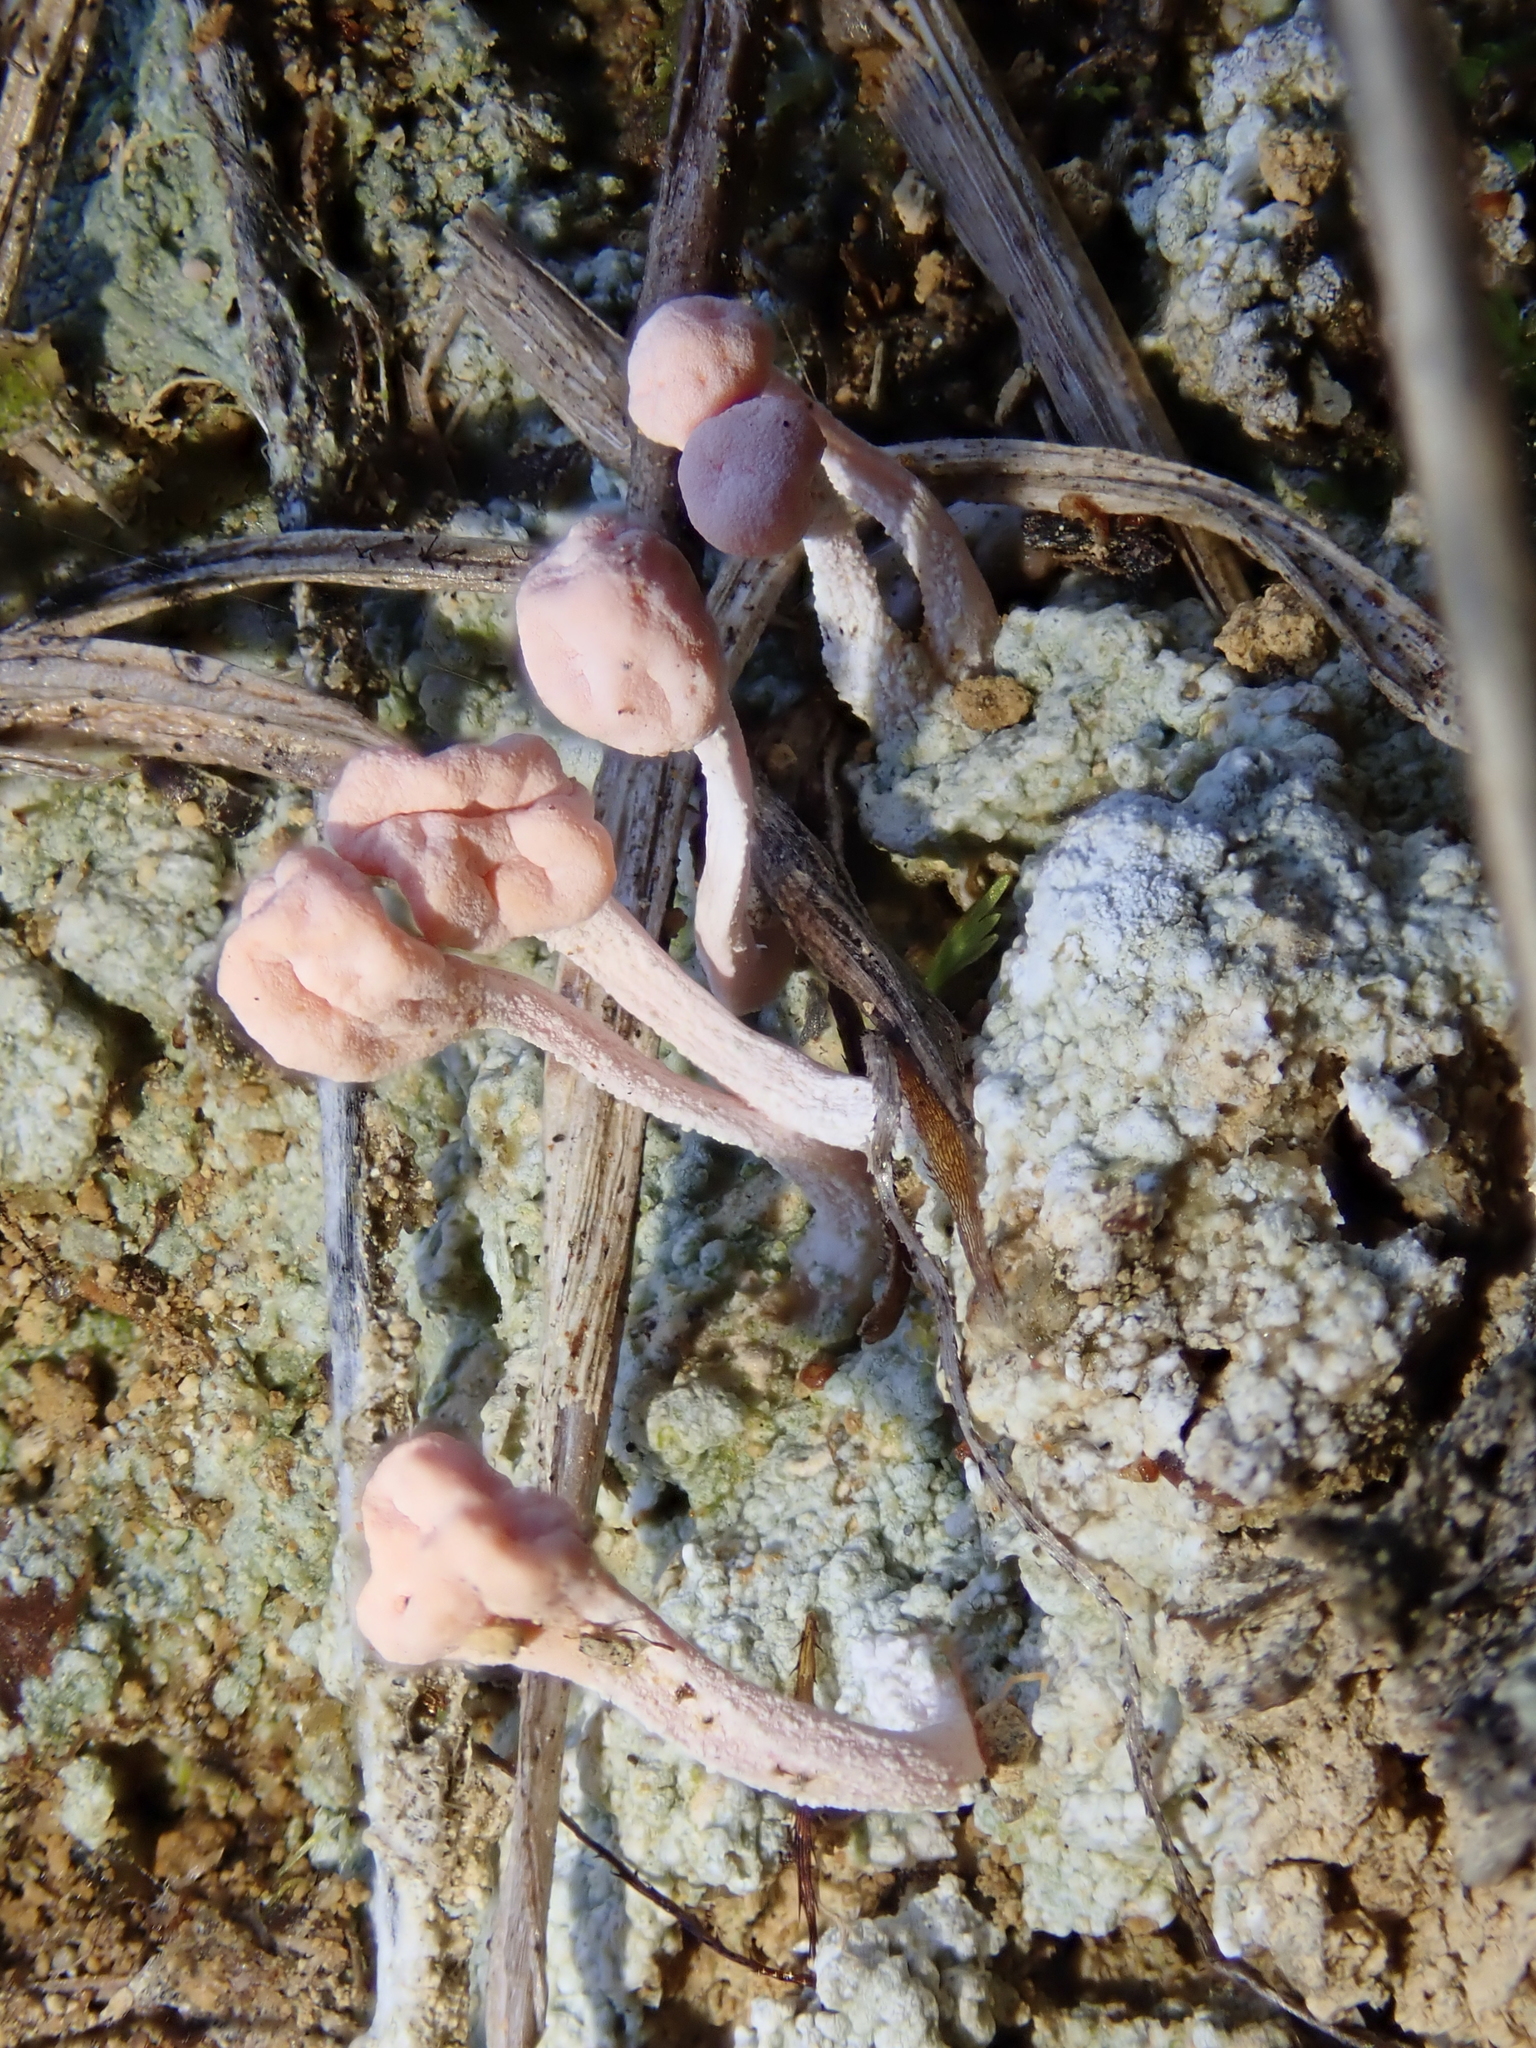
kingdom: Fungi
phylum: Ascomycota
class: Lecanoromycetes
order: Pertusariales
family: Icmadophilaceae
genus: Dibaeis
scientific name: Dibaeis arcuata
